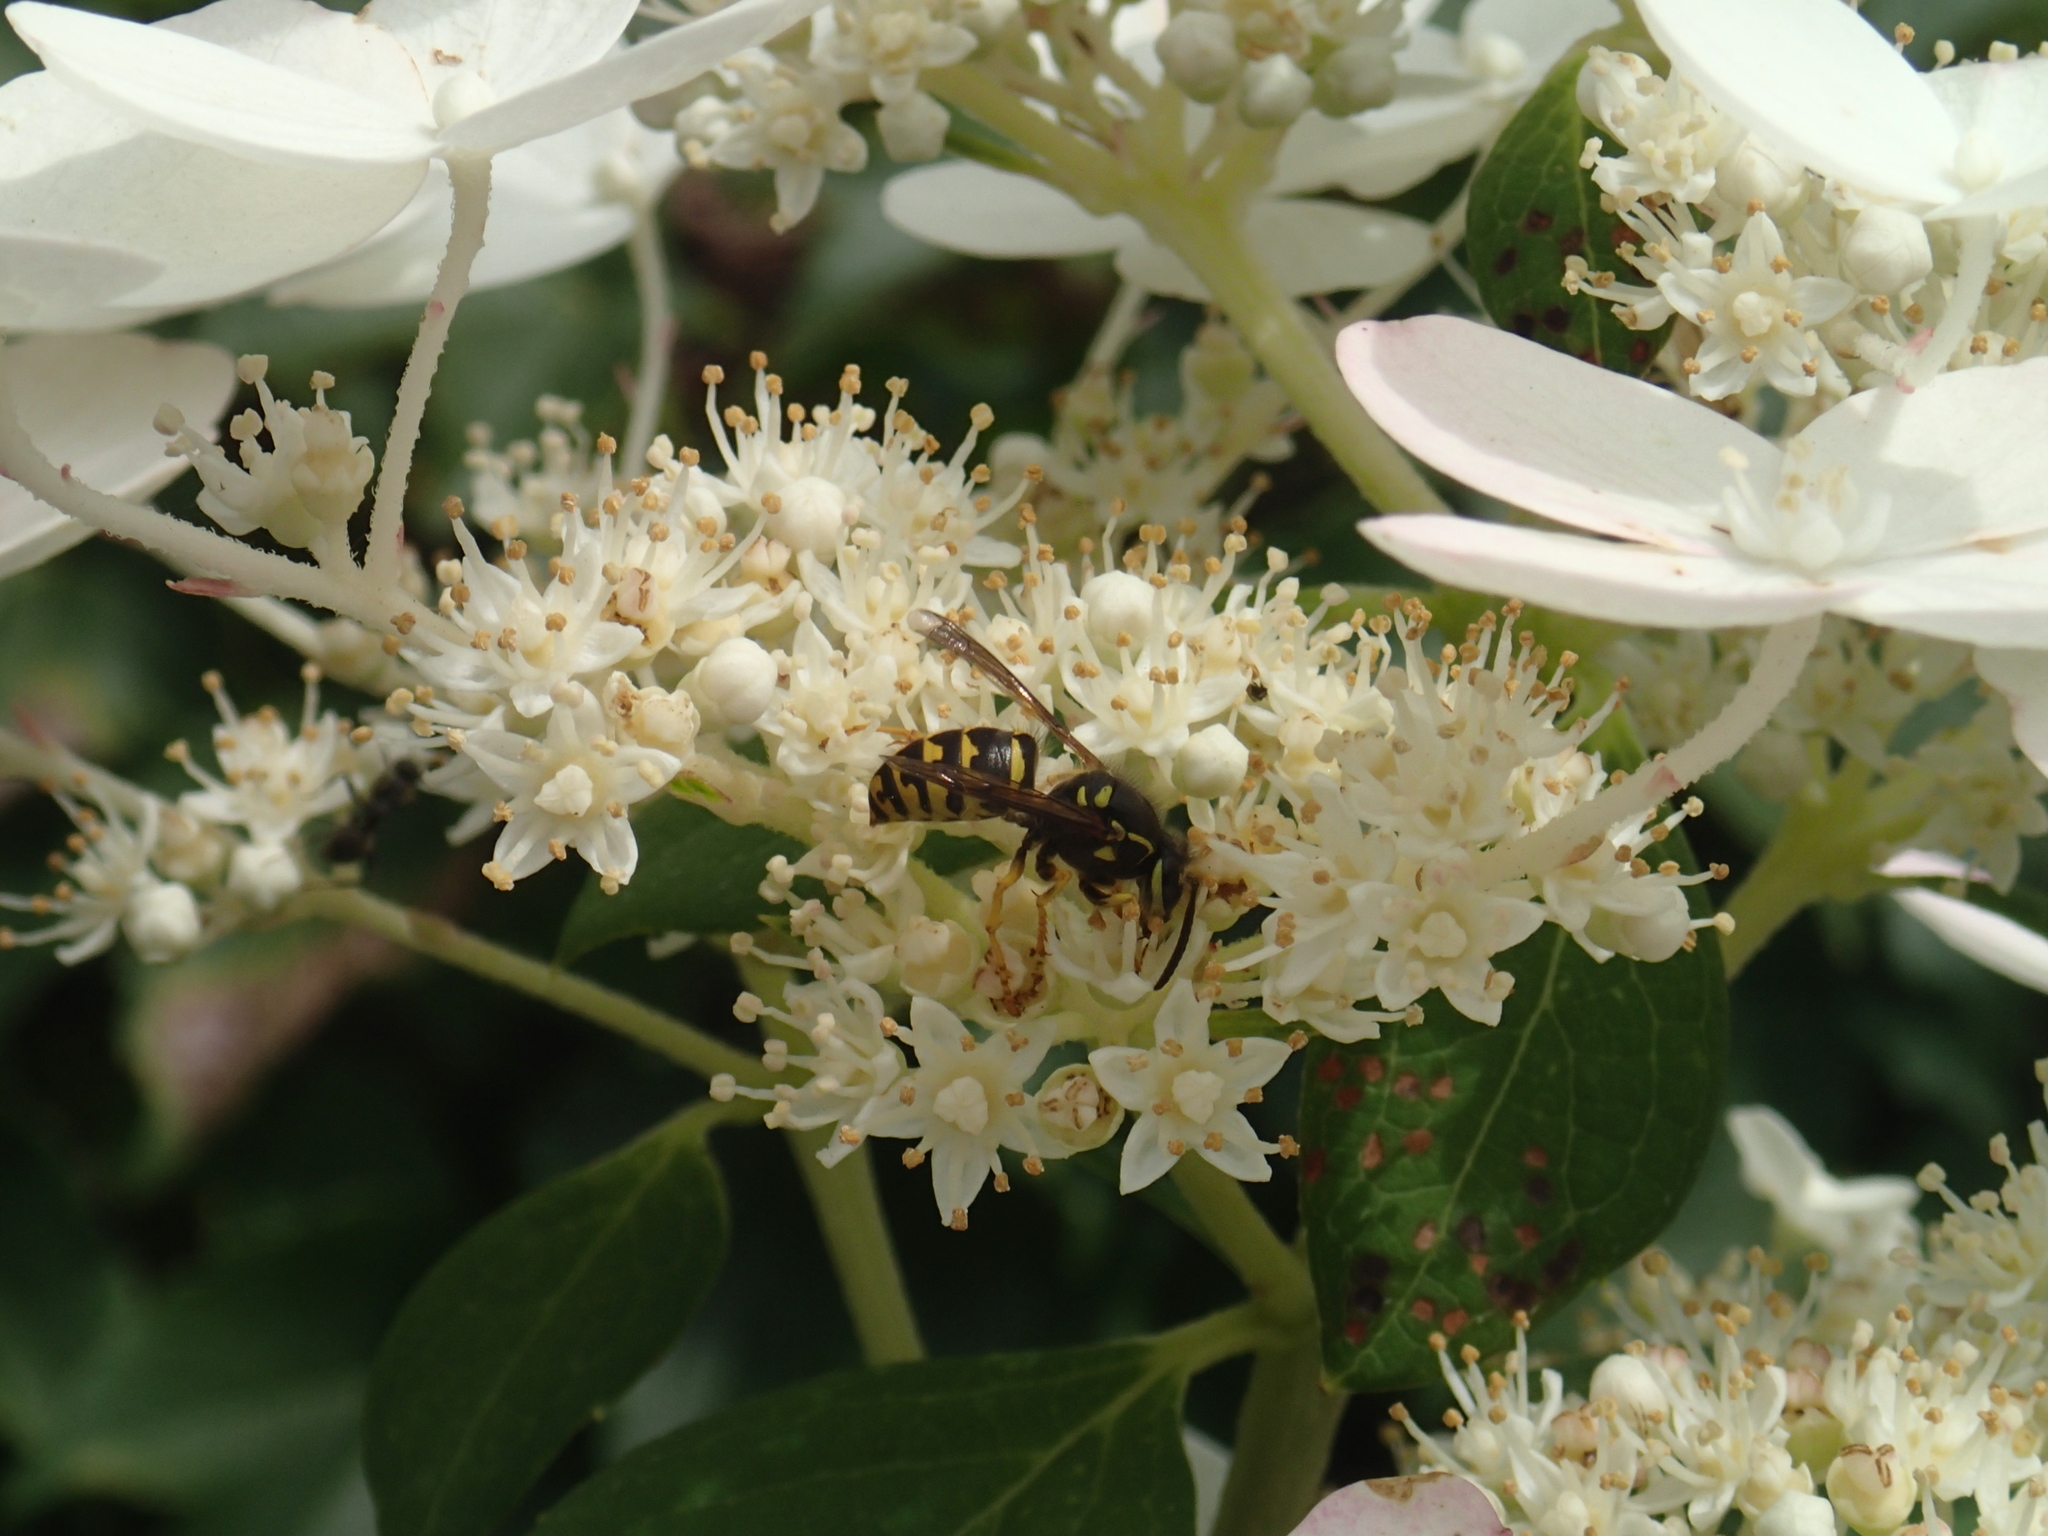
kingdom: Animalia
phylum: Arthropoda
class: Insecta
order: Hymenoptera
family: Vespidae
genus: Dolichovespula
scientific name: Dolichovespula arenaria
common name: Aerial yellowjacket
